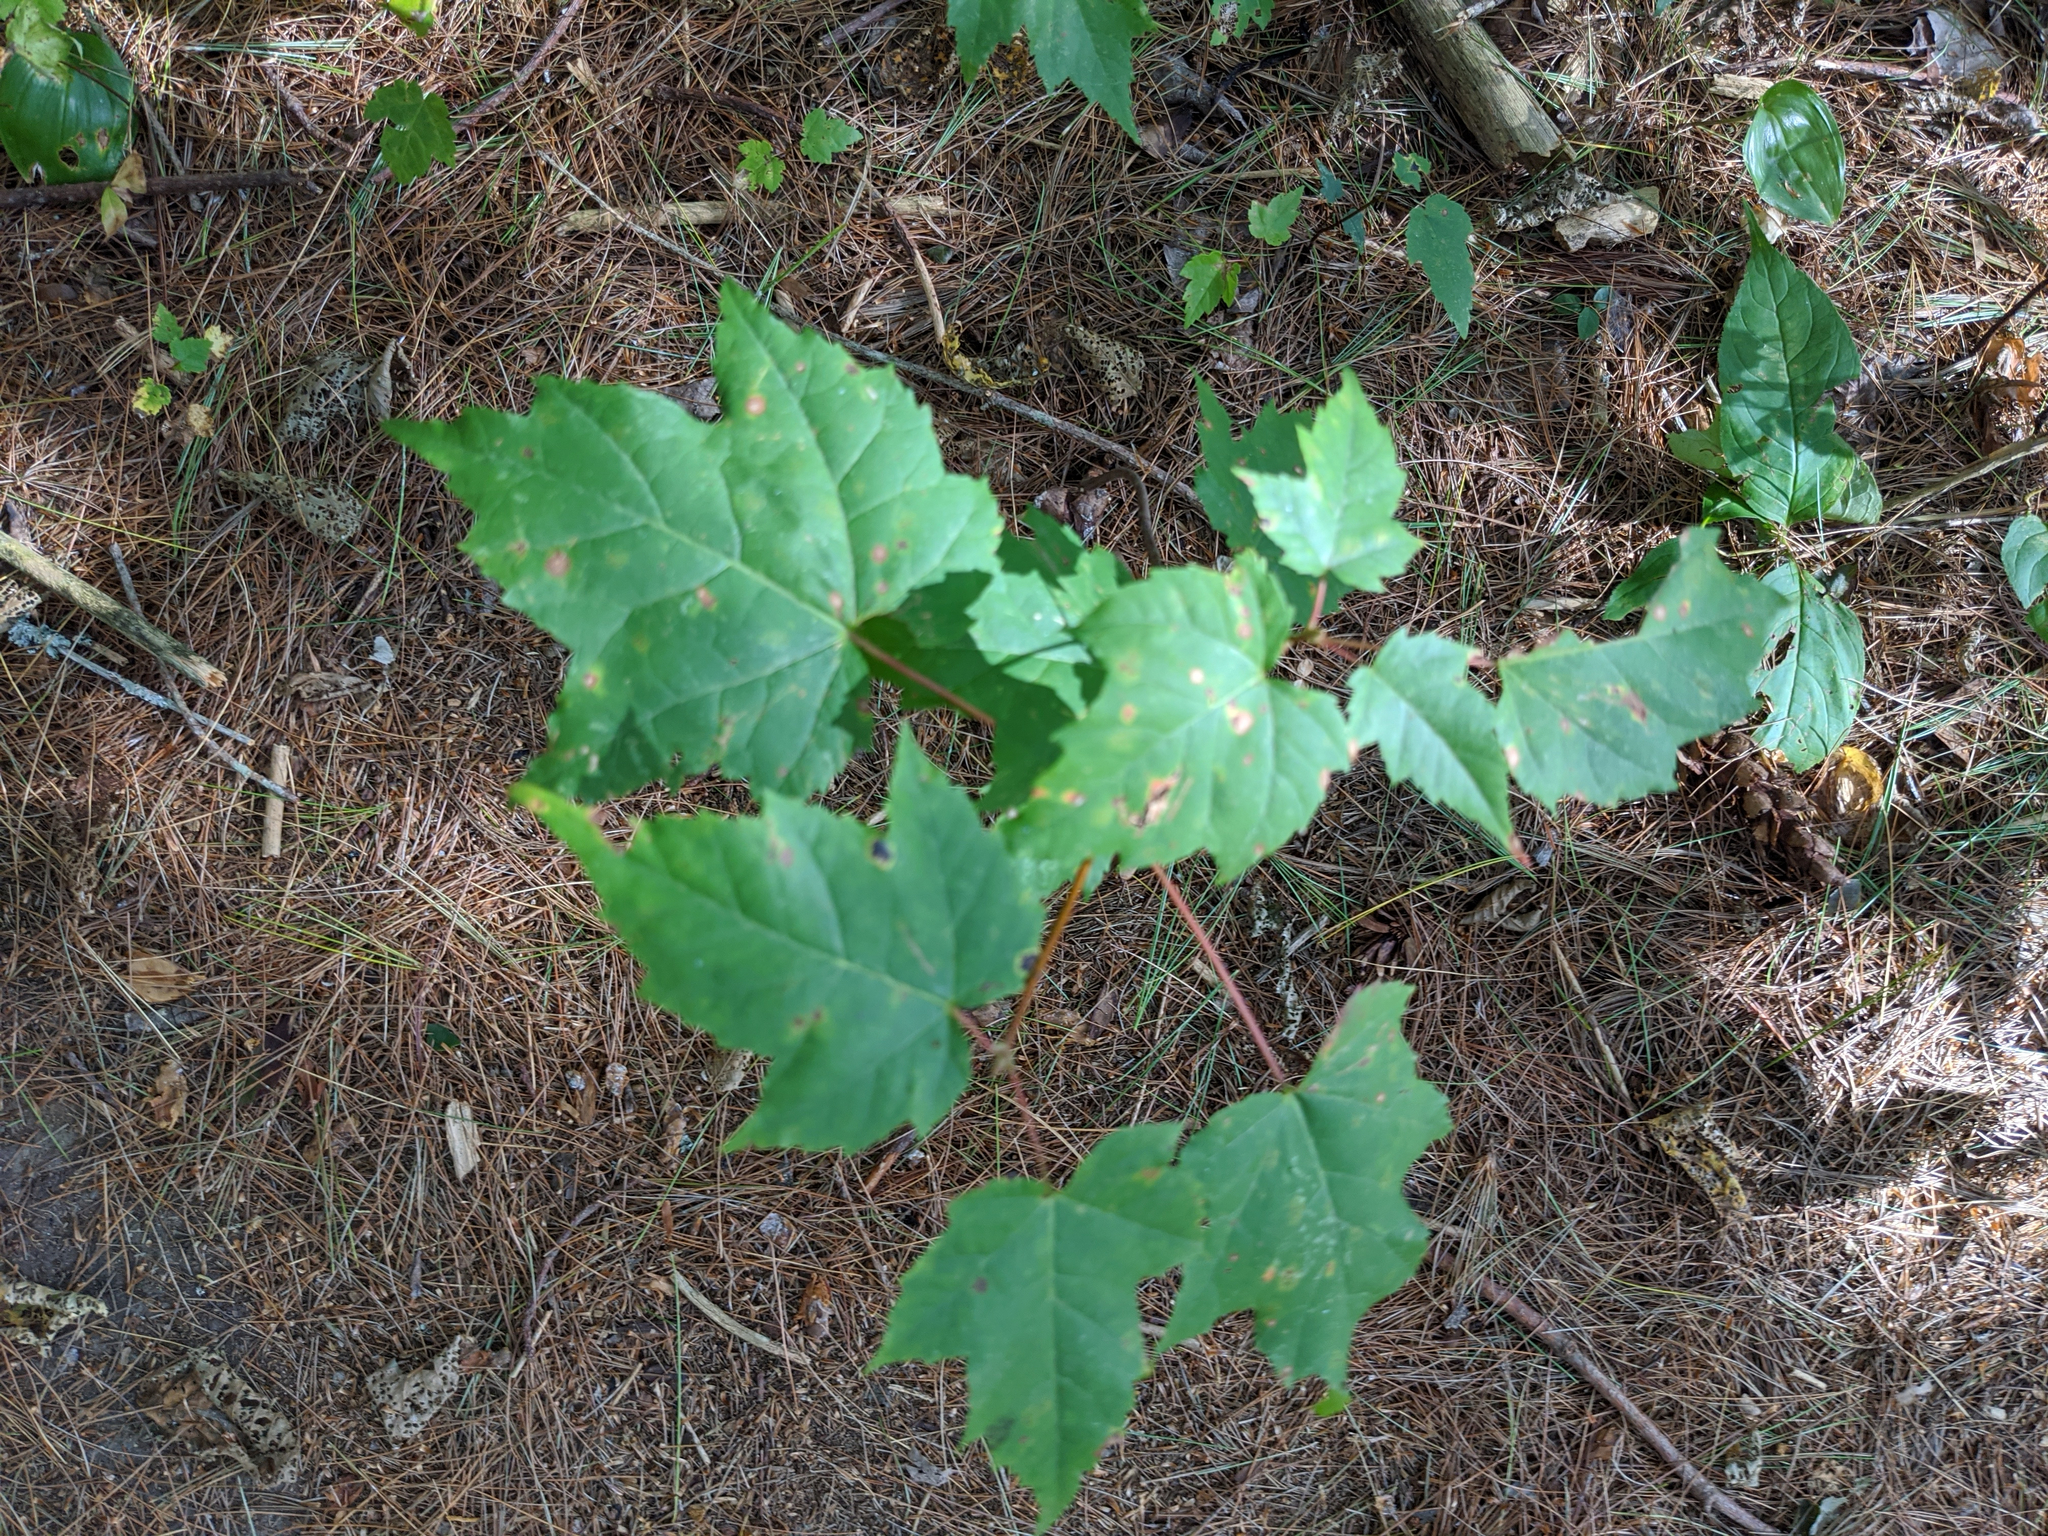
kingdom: Plantae
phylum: Tracheophyta
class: Magnoliopsida
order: Sapindales
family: Sapindaceae
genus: Acer
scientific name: Acer rubrum
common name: Red maple
